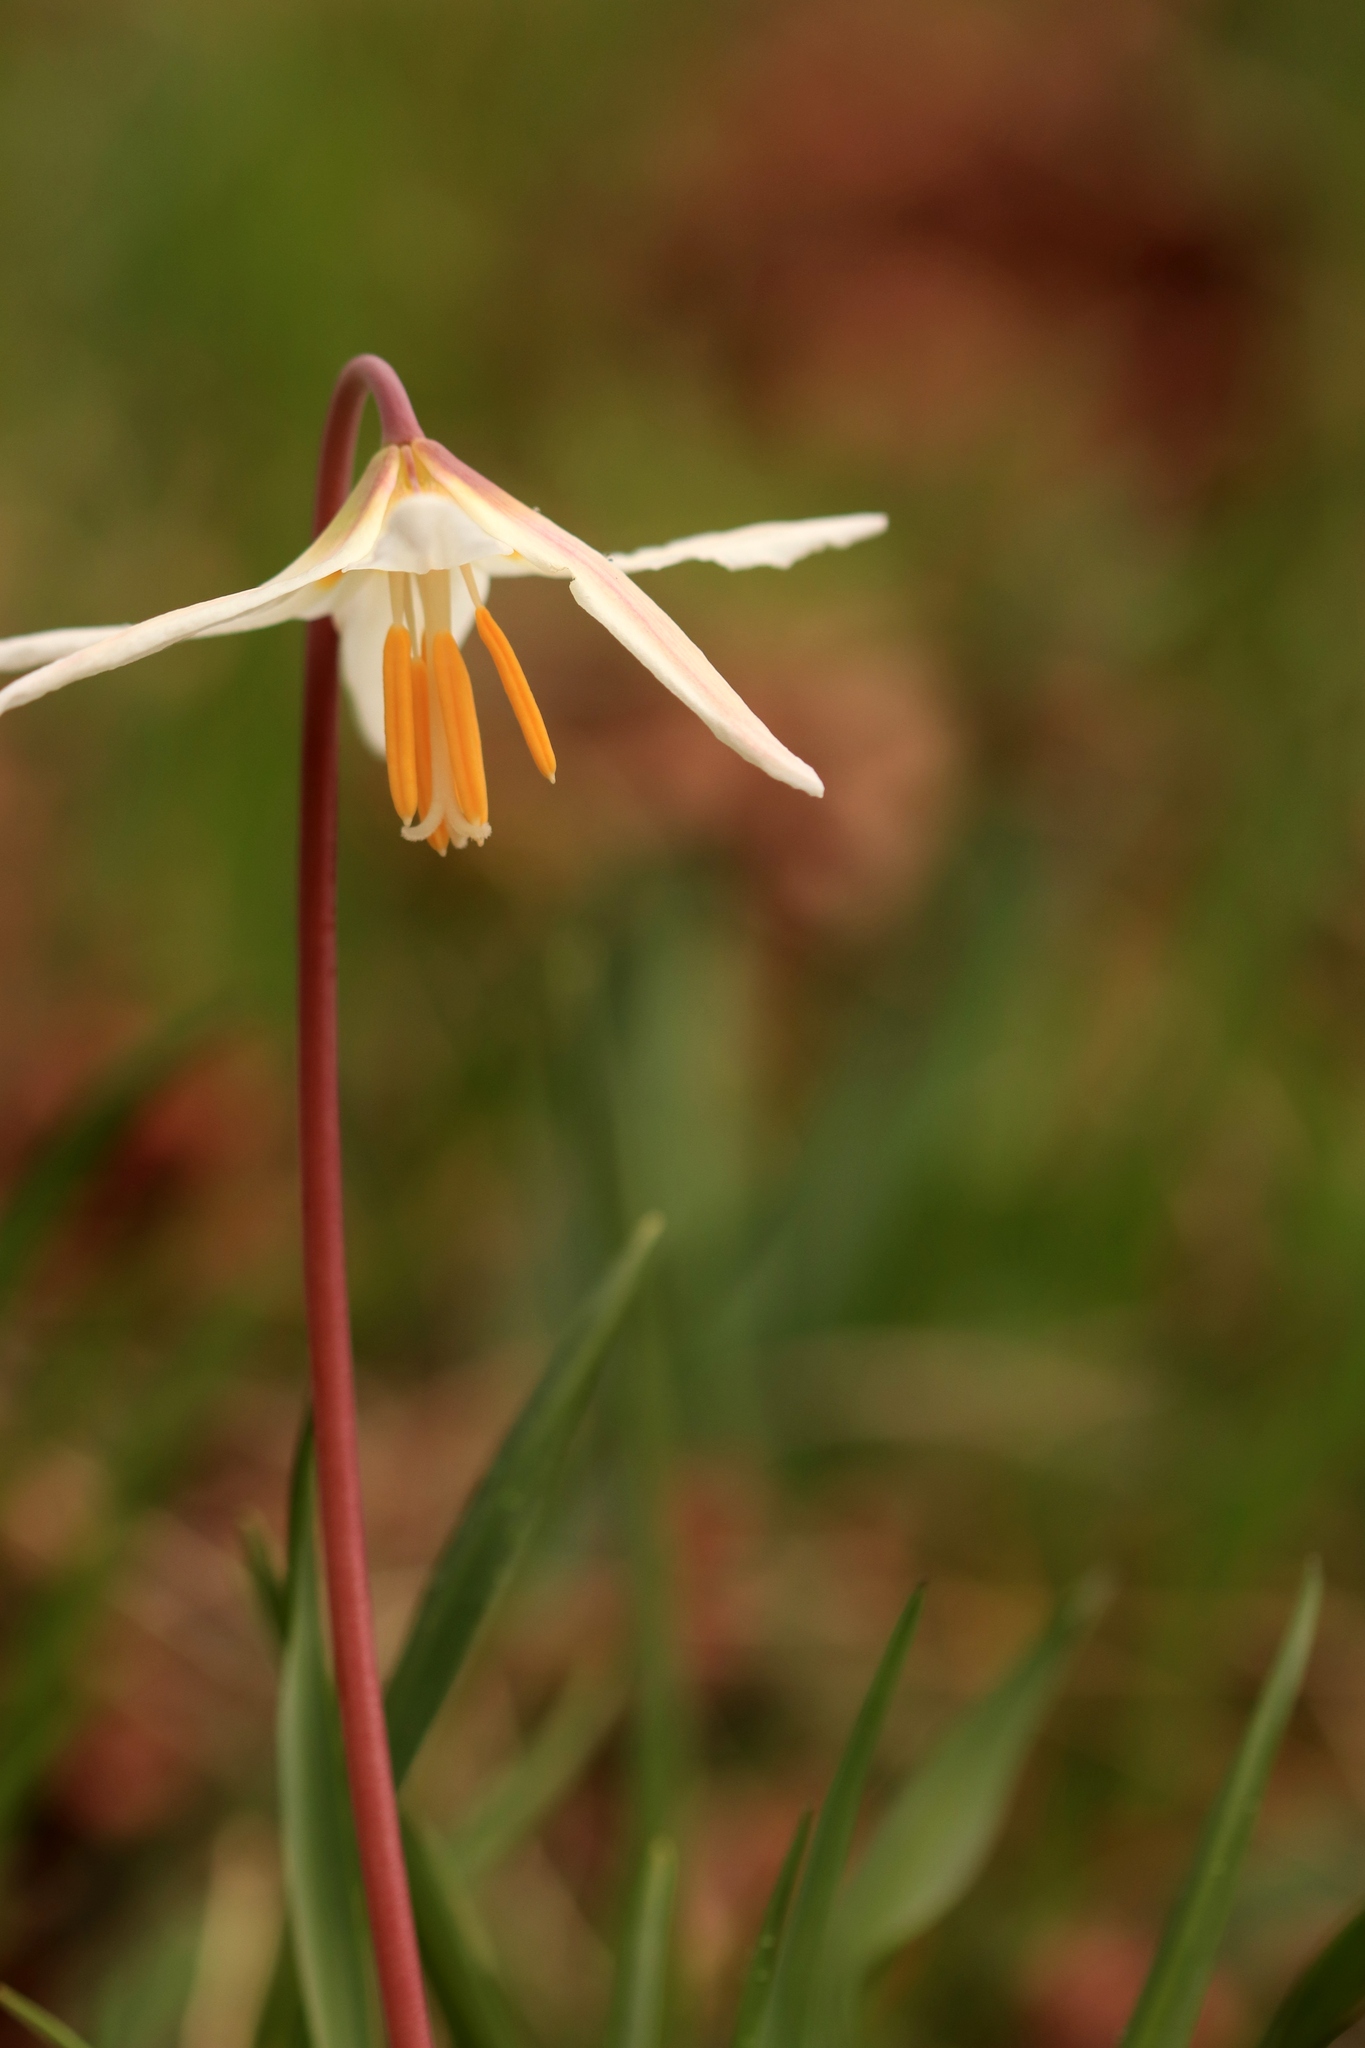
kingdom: Plantae
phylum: Tracheophyta
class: Liliopsida
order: Liliales
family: Liliaceae
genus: Erythronium
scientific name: Erythronium oregonum
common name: Giant adder's-tongue
